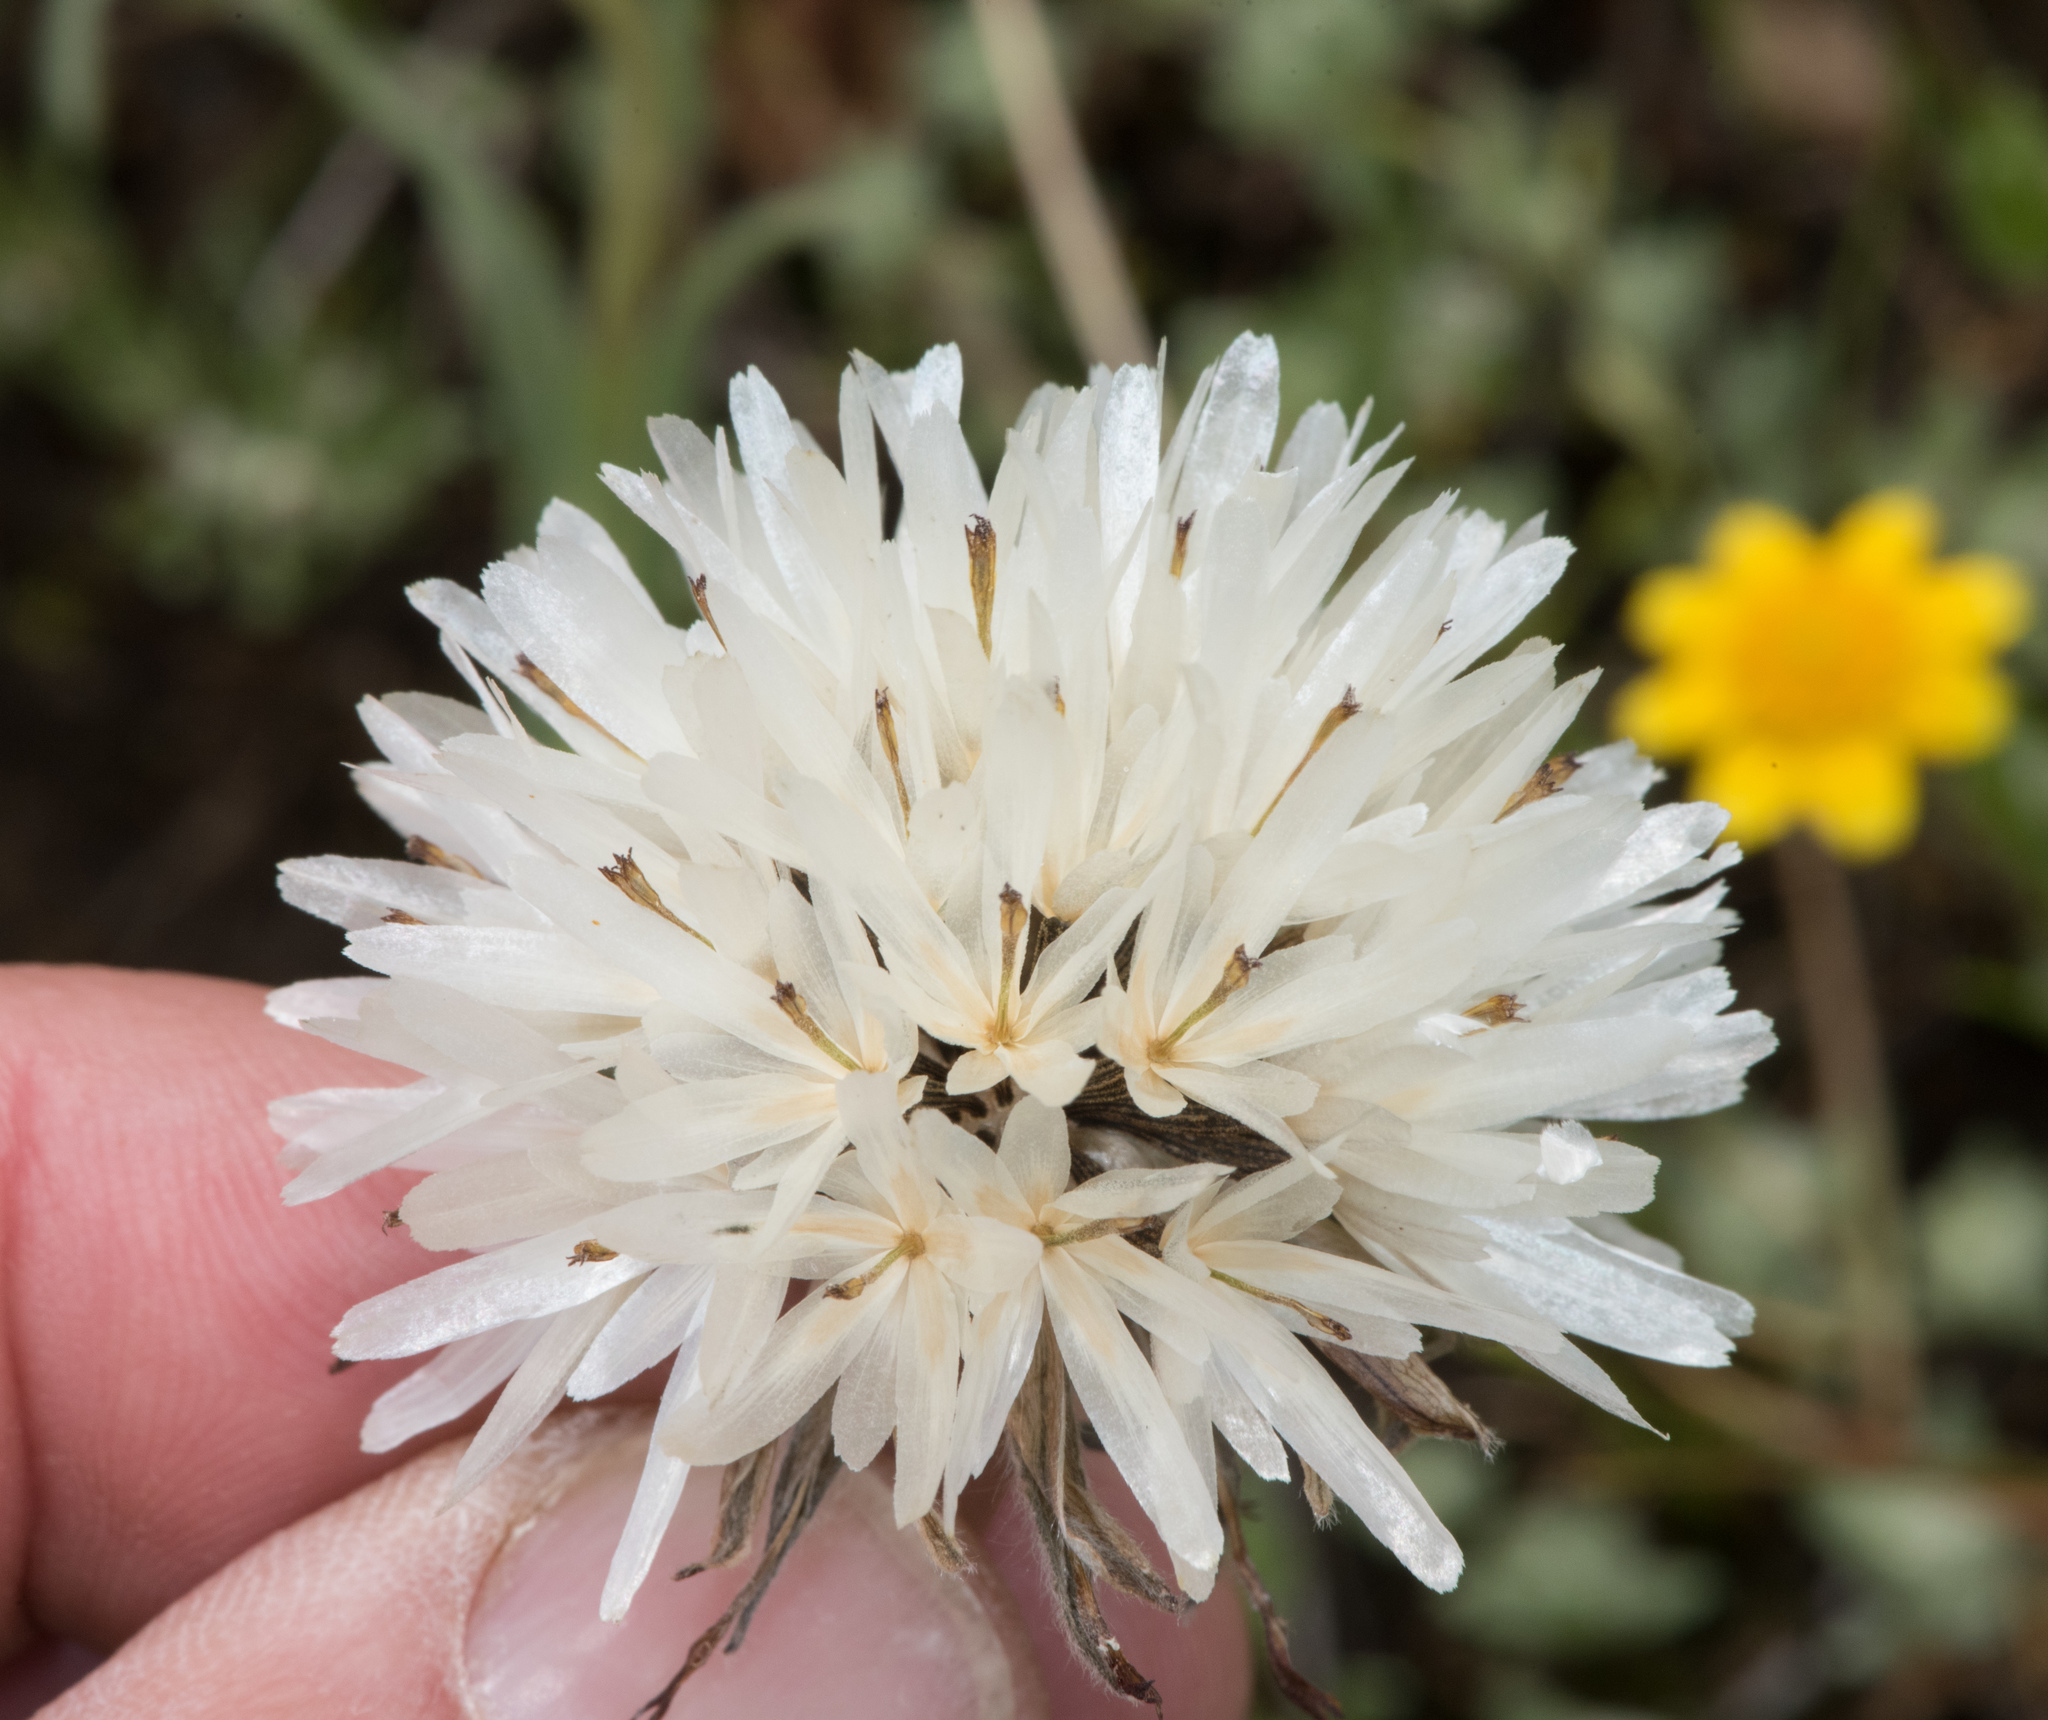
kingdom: Plantae
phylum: Tracheophyta
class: Magnoliopsida
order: Asterales
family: Asteraceae
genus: Achyrachaena
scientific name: Achyrachaena mollis
